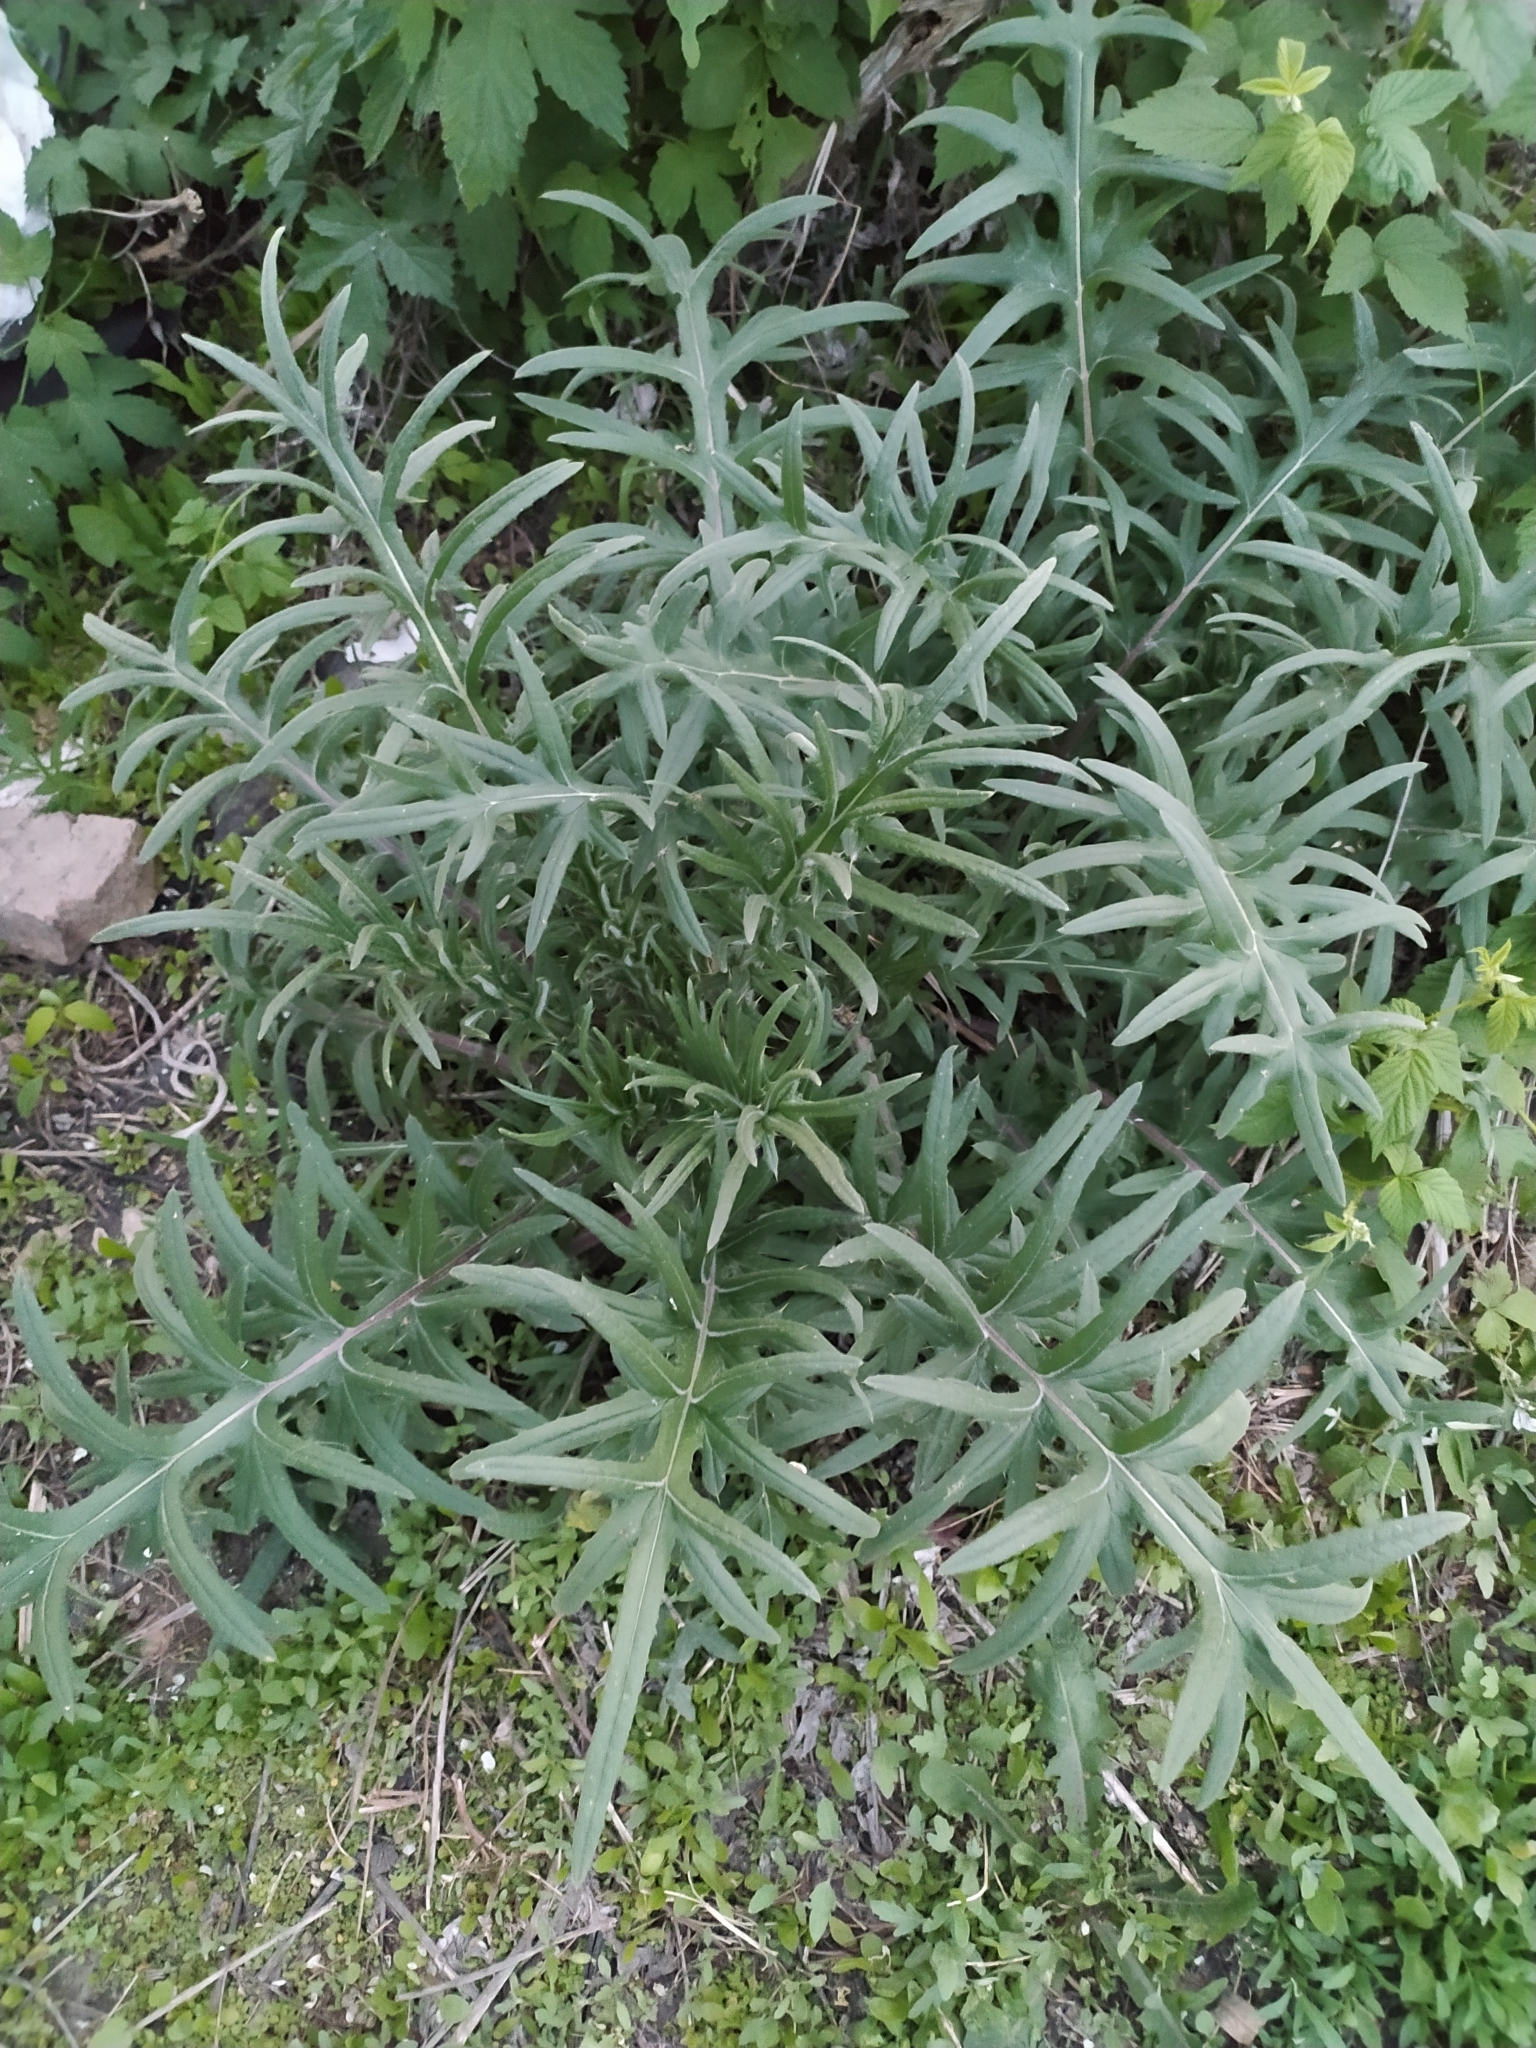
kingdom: Plantae
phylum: Tracheophyta
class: Magnoliopsida
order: Asterales
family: Asteraceae
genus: Lophiolepis
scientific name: Lophiolepis decussata
